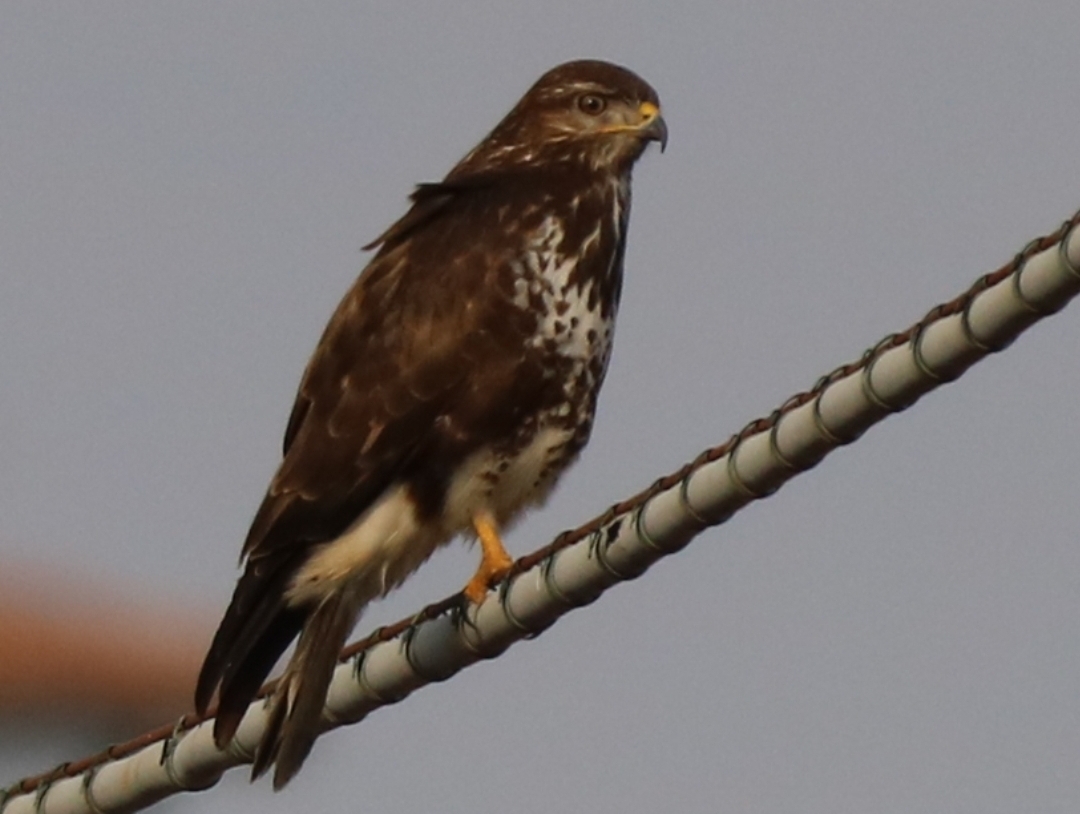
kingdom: Animalia
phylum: Chordata
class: Aves
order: Accipitriformes
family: Accipitridae
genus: Buteo
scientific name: Buteo buteo
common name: Common buzzard
